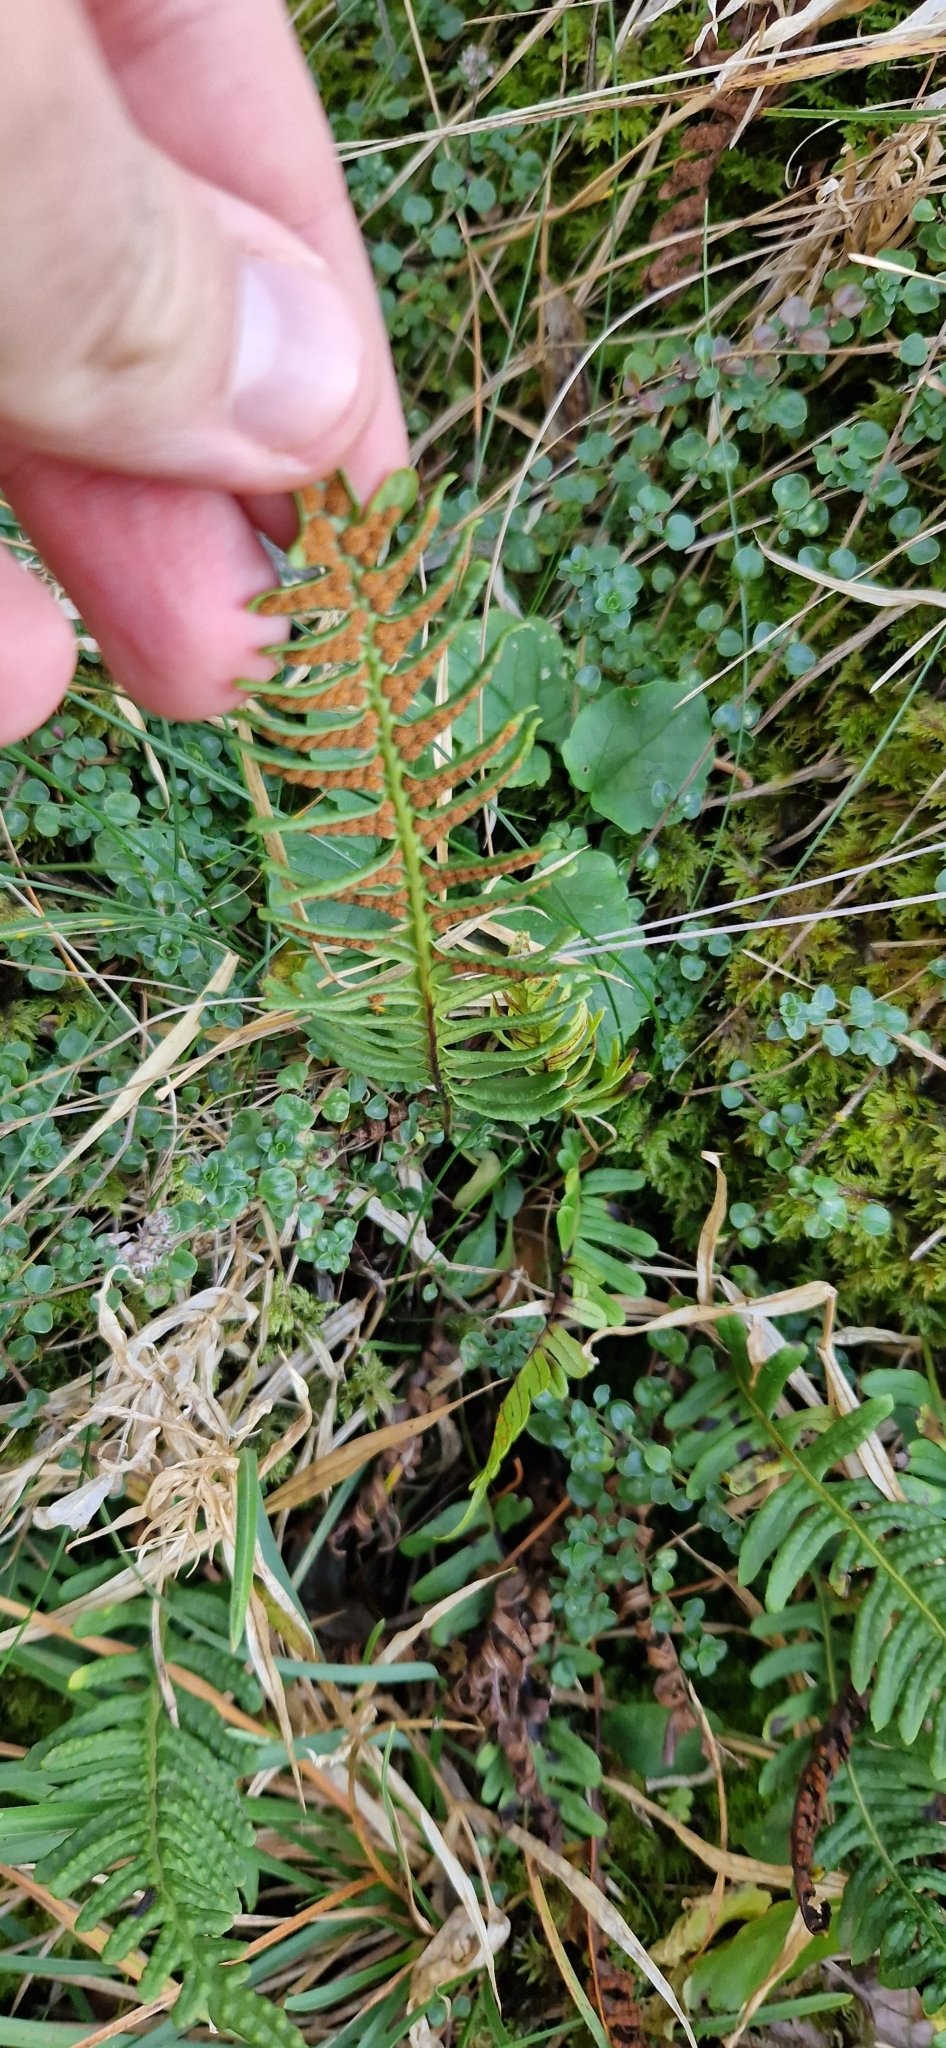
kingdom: Plantae
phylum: Tracheophyta
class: Polypodiopsida
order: Polypodiales
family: Polypodiaceae
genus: Polypodium
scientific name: Polypodium vulgare
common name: Common polypody
